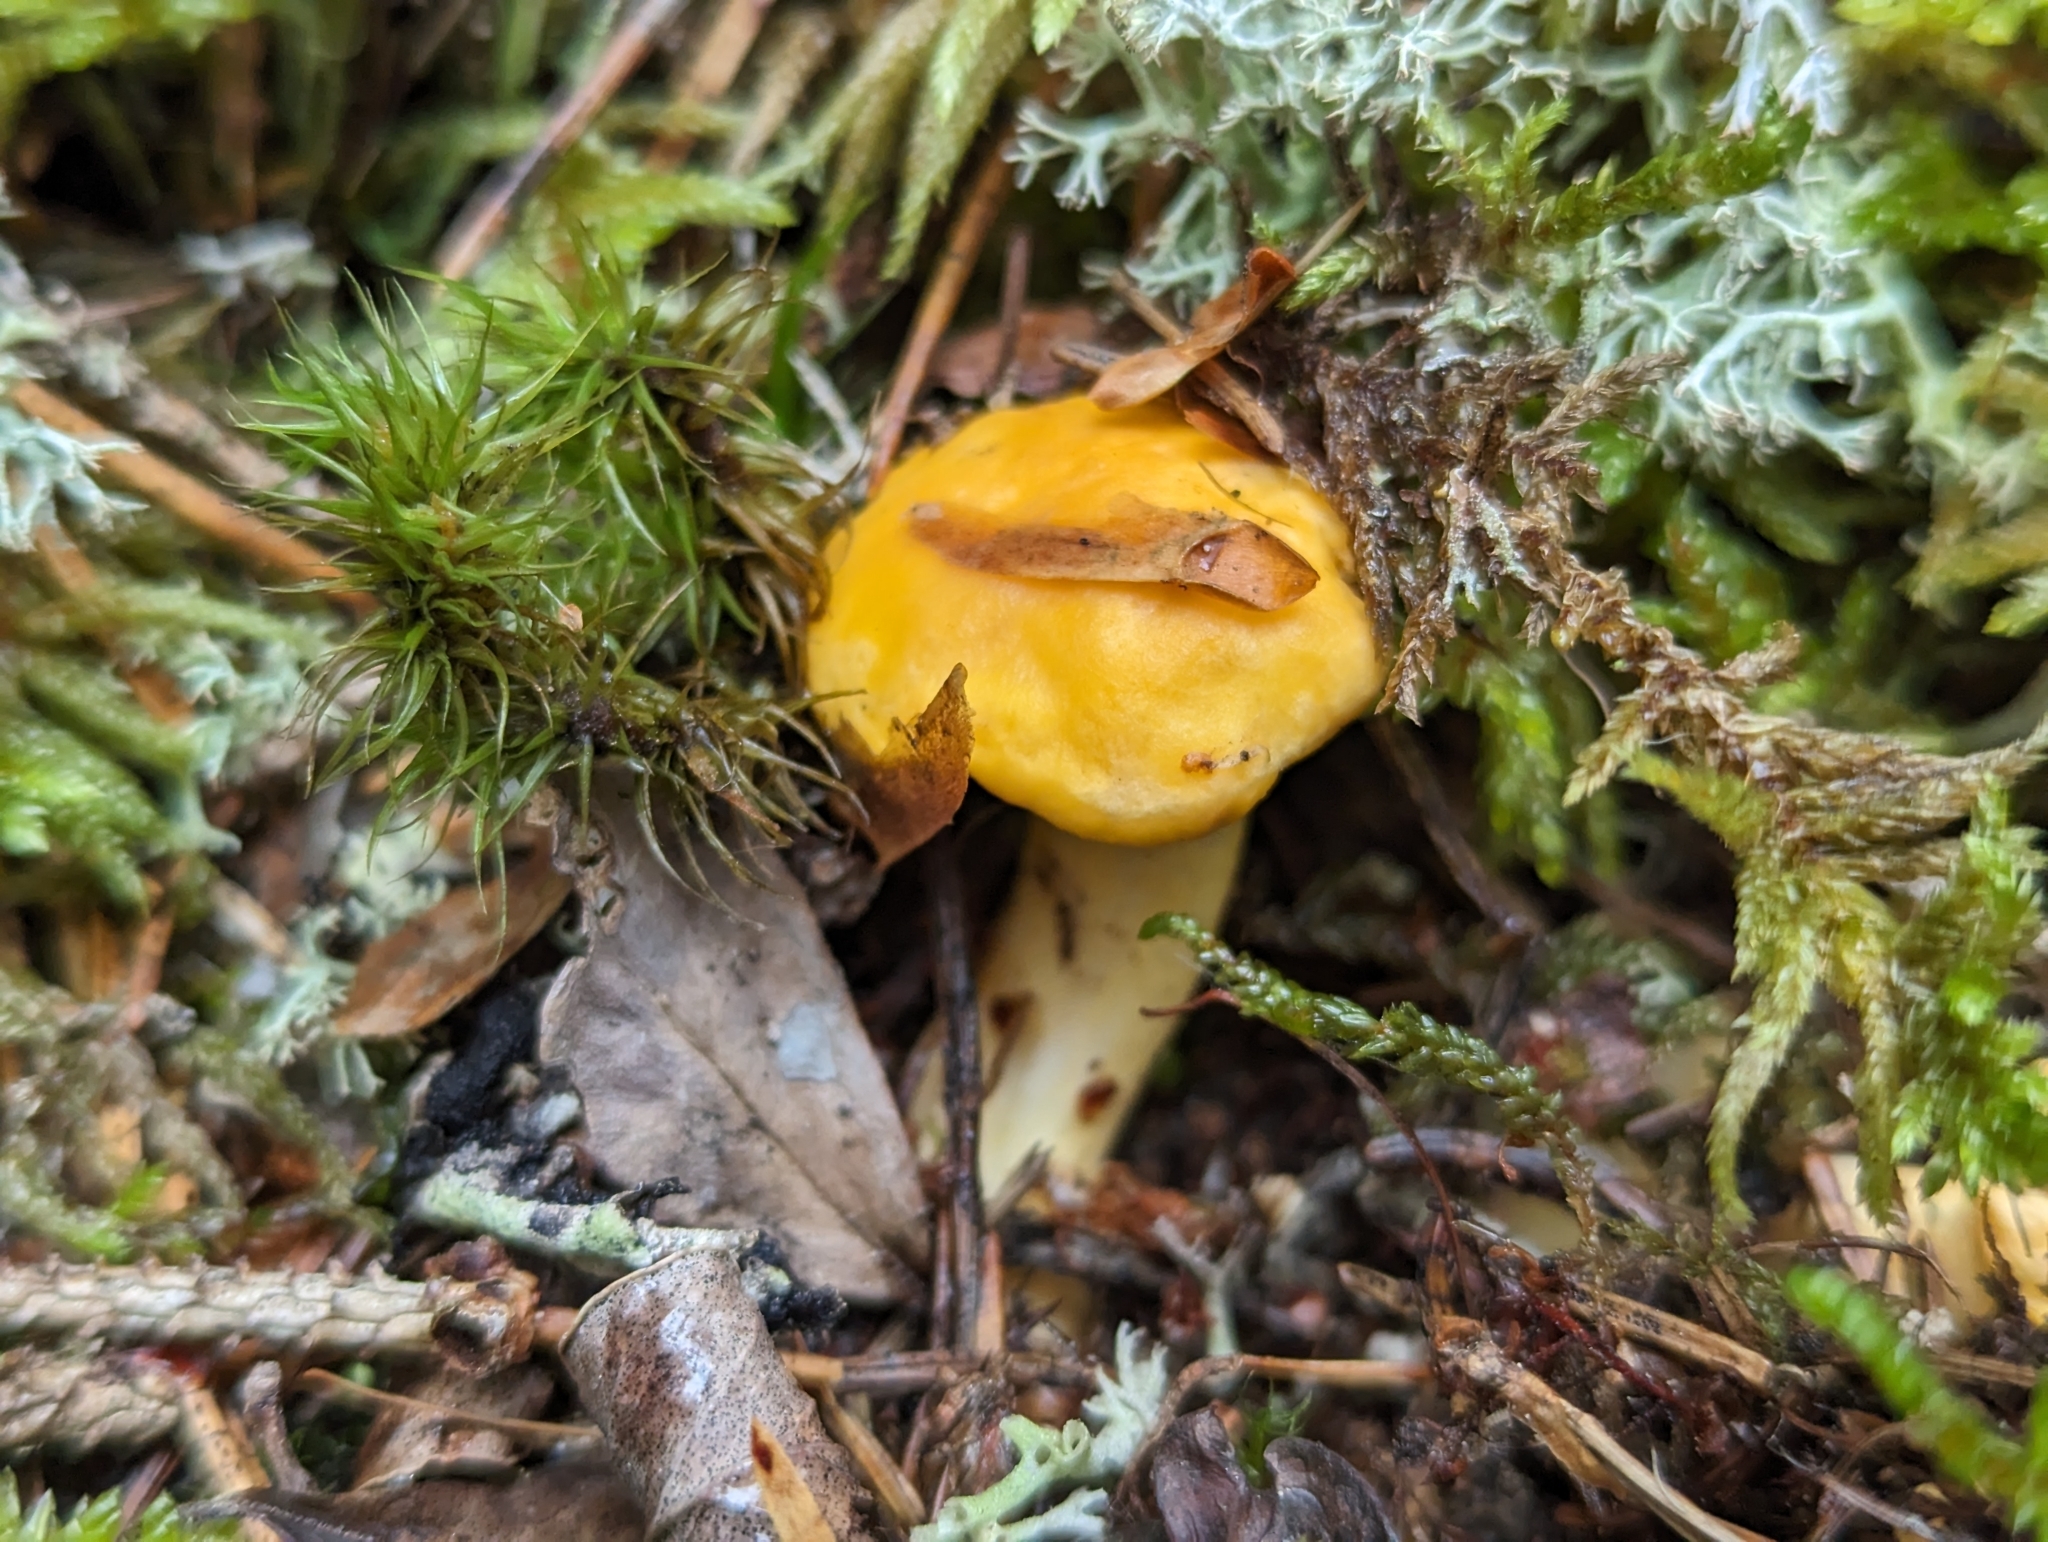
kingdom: Fungi
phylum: Basidiomycota
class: Agaricomycetes
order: Cantharellales
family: Hydnaceae
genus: Cantharellus
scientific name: Cantharellus cibarius
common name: Chanterelle
